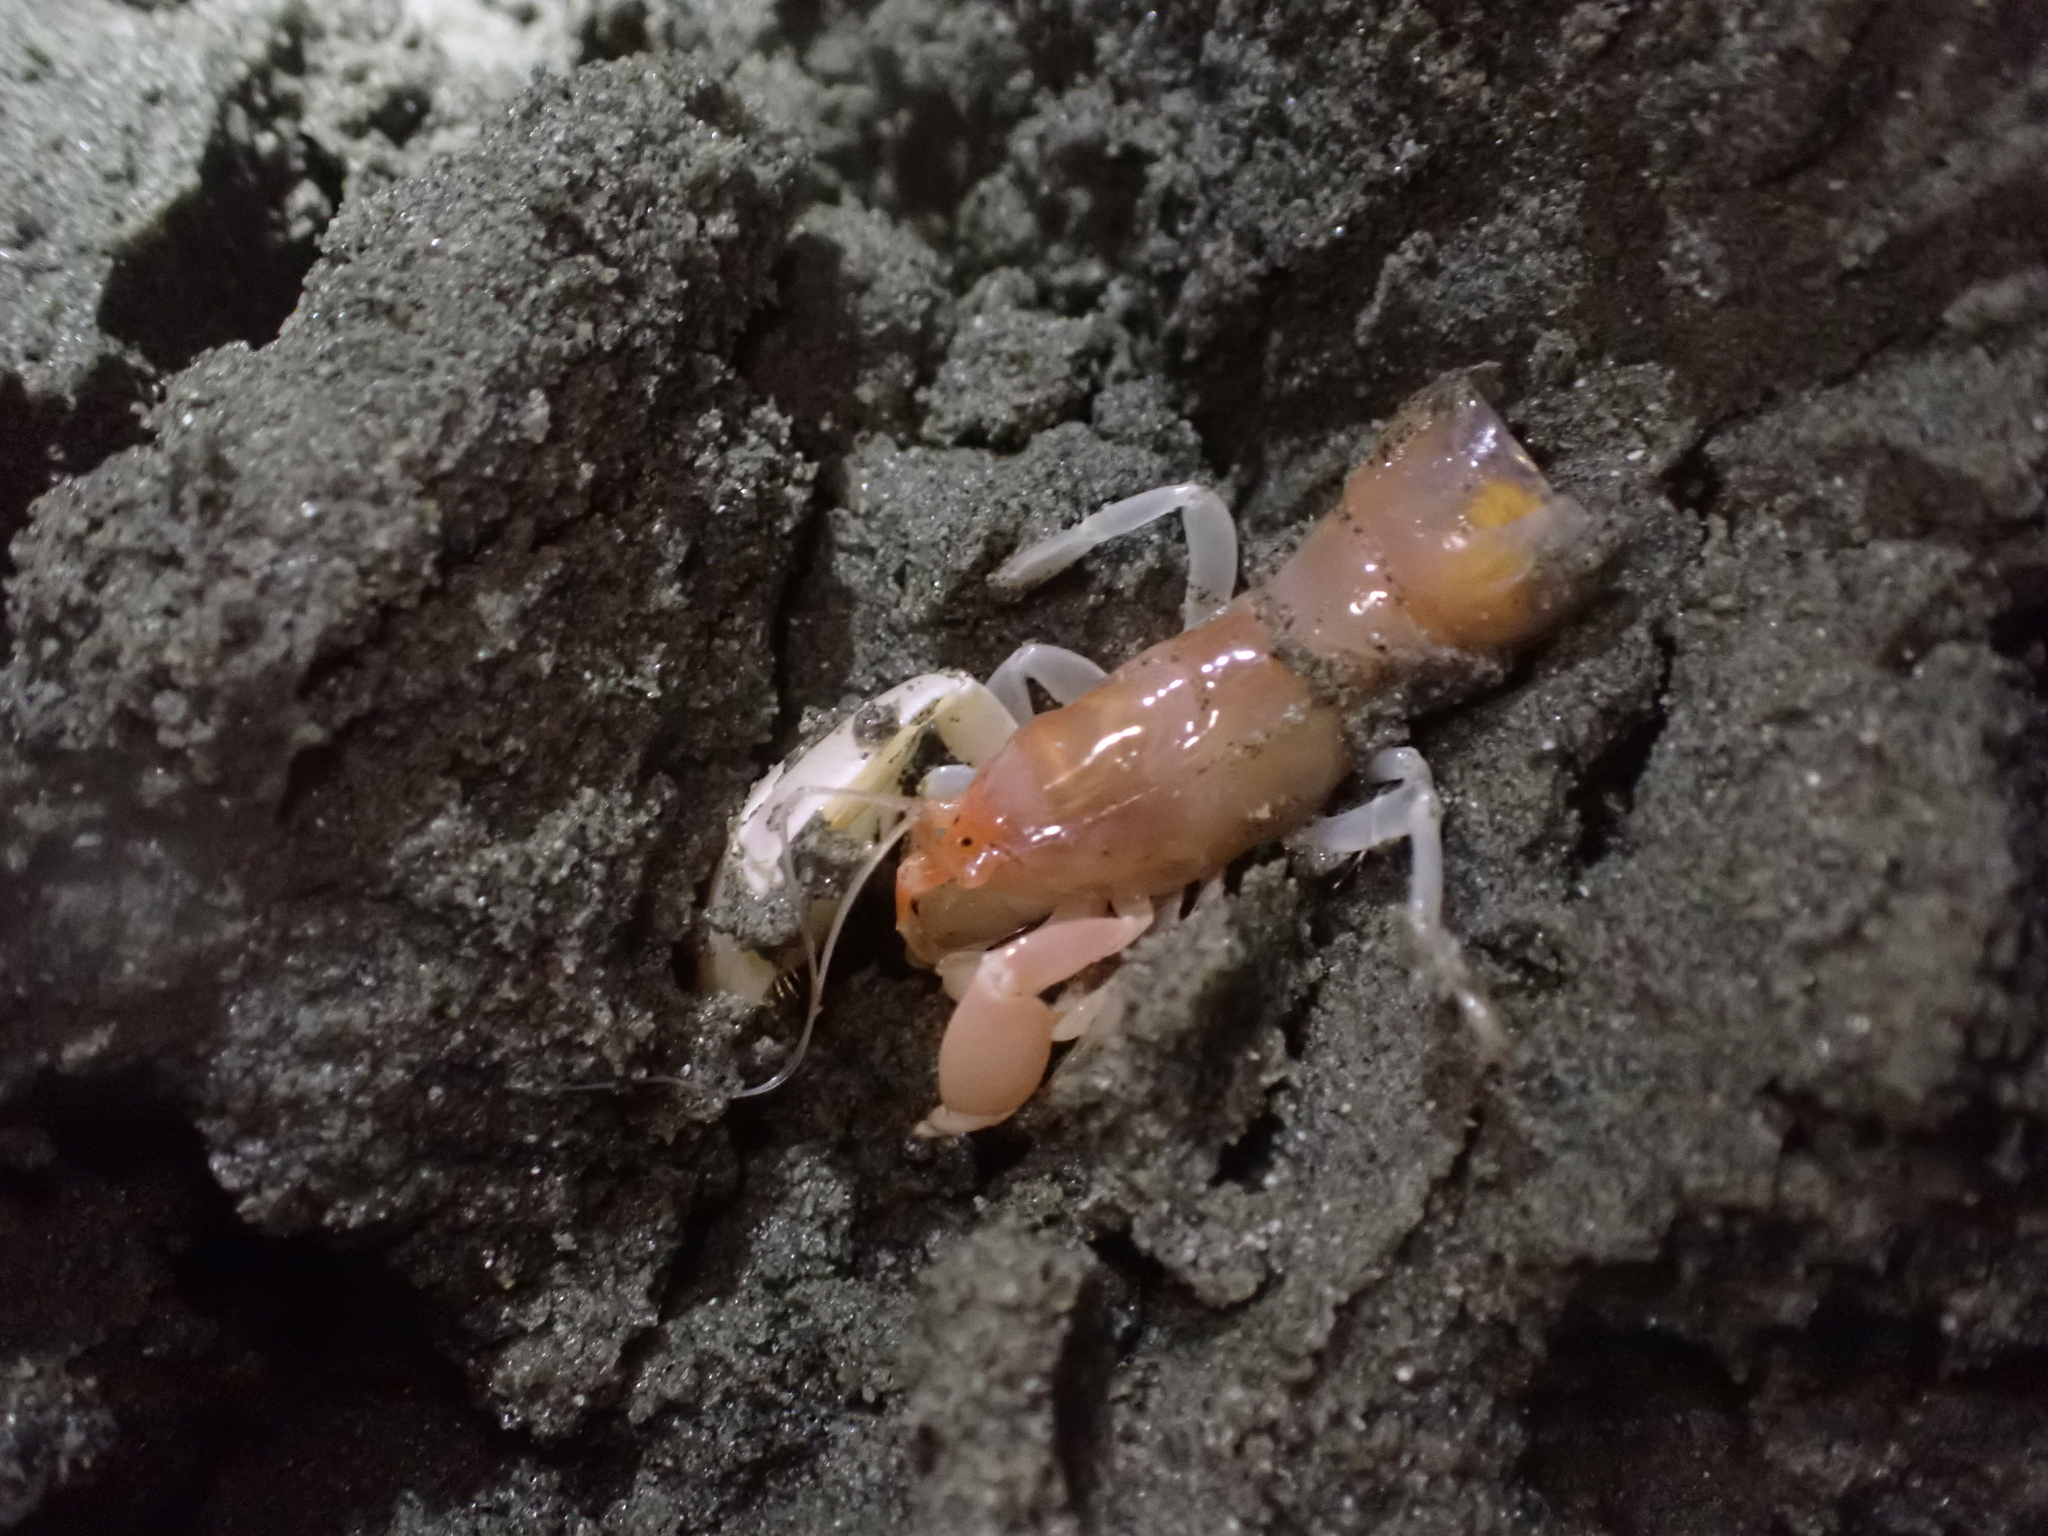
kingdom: Animalia
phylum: Arthropoda
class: Malacostraca
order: Decapoda
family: Callianassidae
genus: Neotrypaea
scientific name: Neotrypaea californiensis
